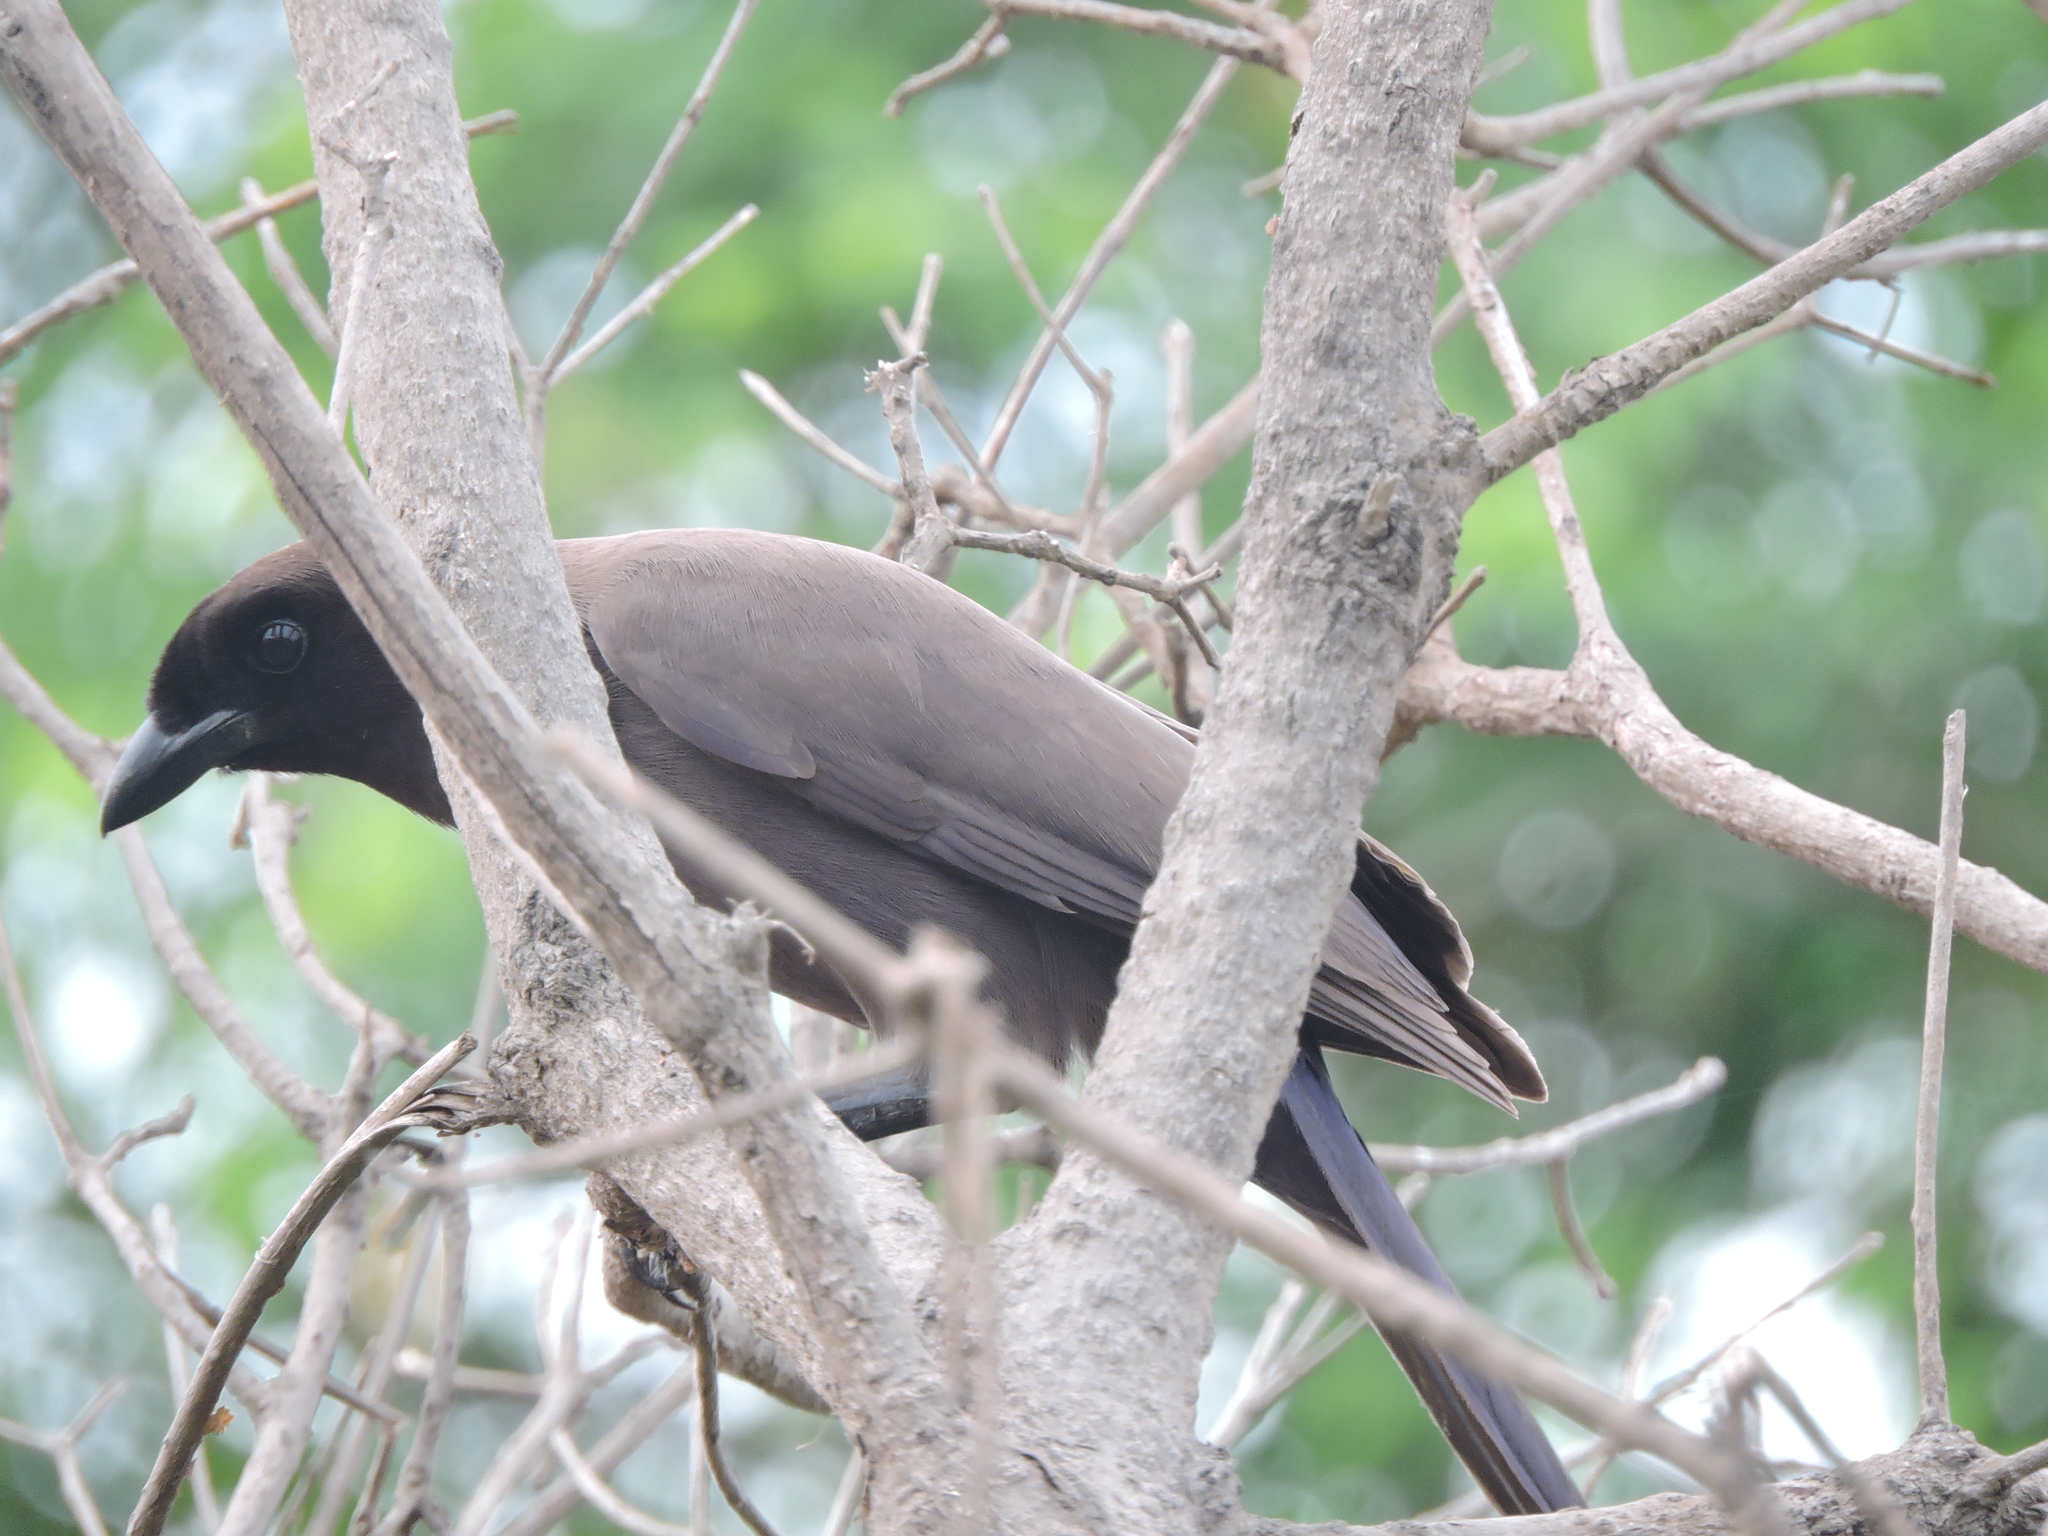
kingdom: Animalia
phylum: Chordata
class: Aves
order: Passeriformes
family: Corvidae
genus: Cyanocorax
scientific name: Cyanocorax cyanomelas
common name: Purplish jay
